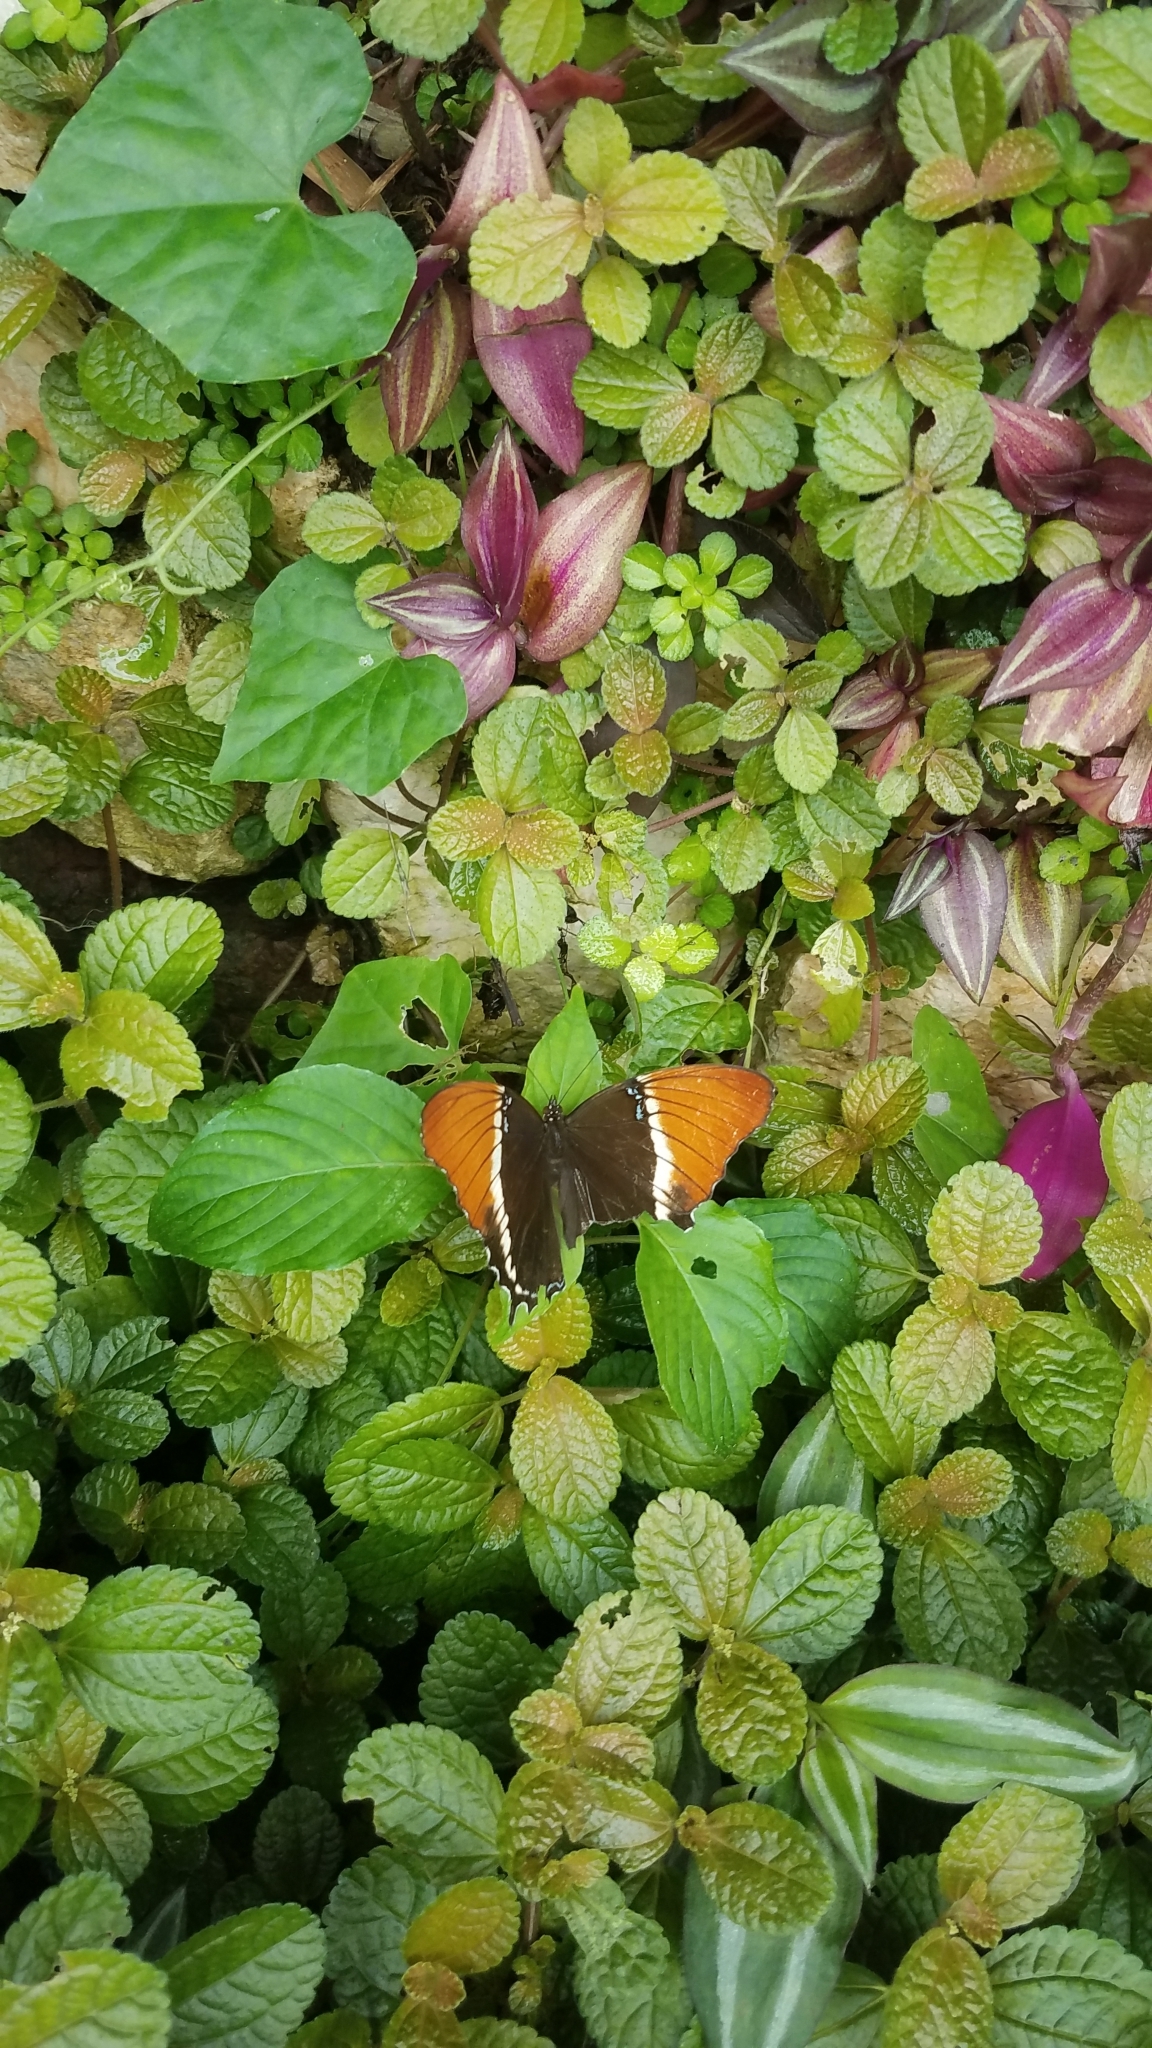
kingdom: Animalia
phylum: Arthropoda
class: Insecta
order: Lepidoptera
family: Nymphalidae
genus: Siproeta
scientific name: Siproeta epaphus
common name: Rusty-tipped page
